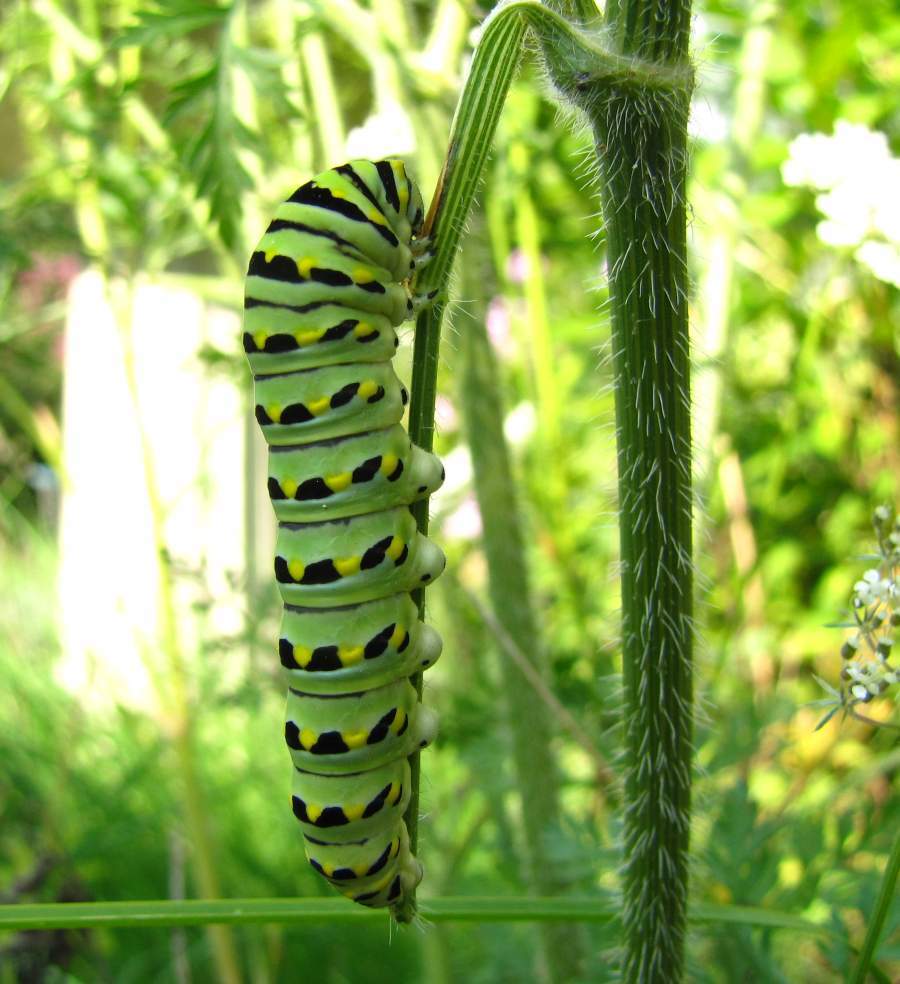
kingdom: Animalia
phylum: Arthropoda
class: Insecta
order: Lepidoptera
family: Papilionidae
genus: Papilio
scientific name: Papilio polyxenes
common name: Black swallowtail
